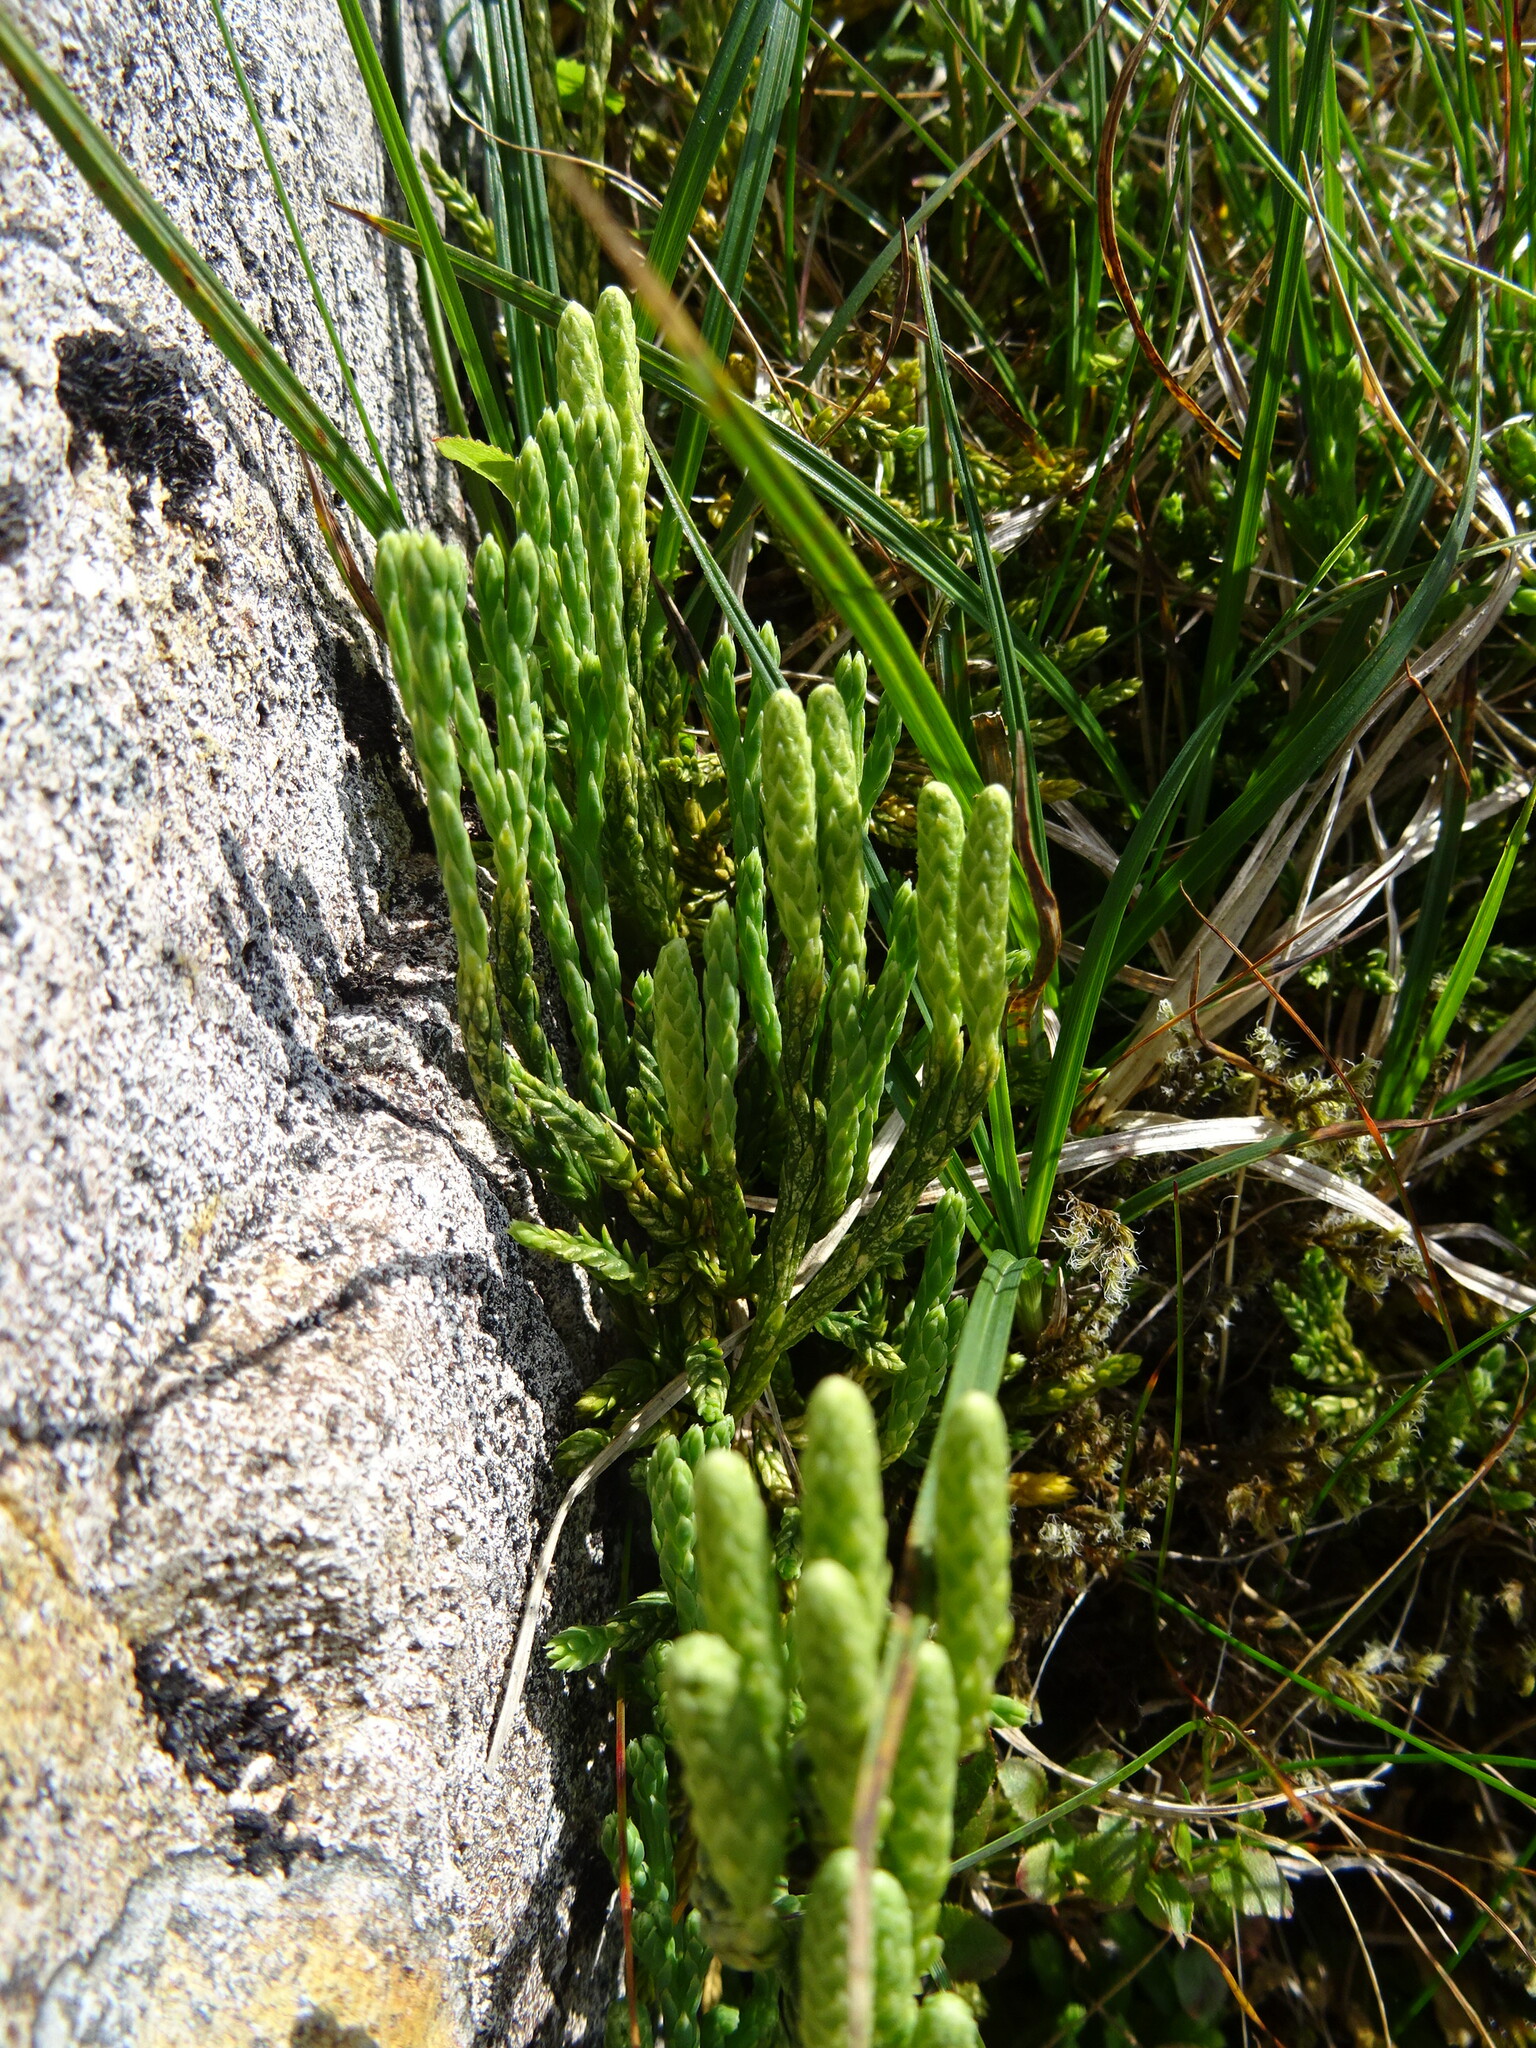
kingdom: Plantae
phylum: Tracheophyta
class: Lycopodiopsida
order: Lycopodiales
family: Lycopodiaceae
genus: Diphasiastrum
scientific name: Diphasiastrum alpinum
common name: Alpine clubmoss
